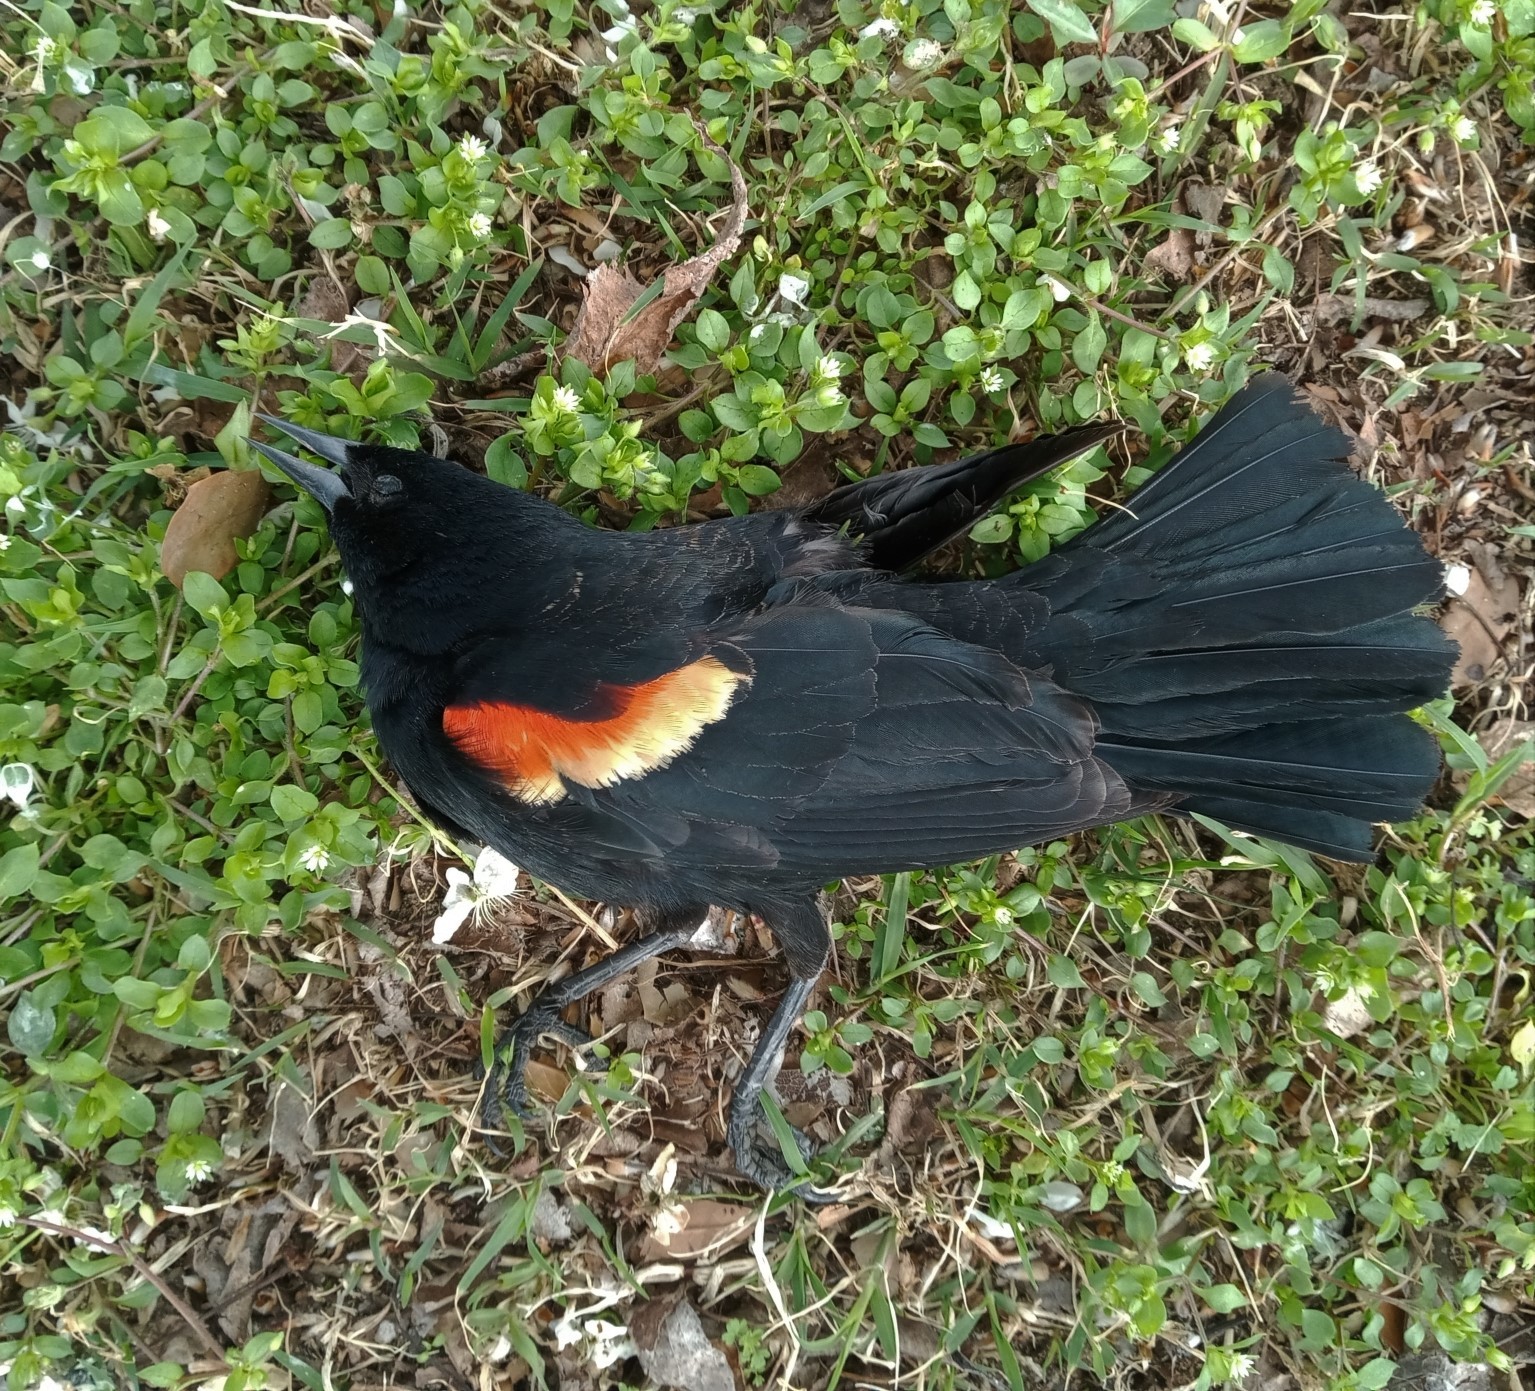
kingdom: Animalia
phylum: Chordata
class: Aves
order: Passeriformes
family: Icteridae
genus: Agelaius
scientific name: Agelaius phoeniceus
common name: Red-winged blackbird
